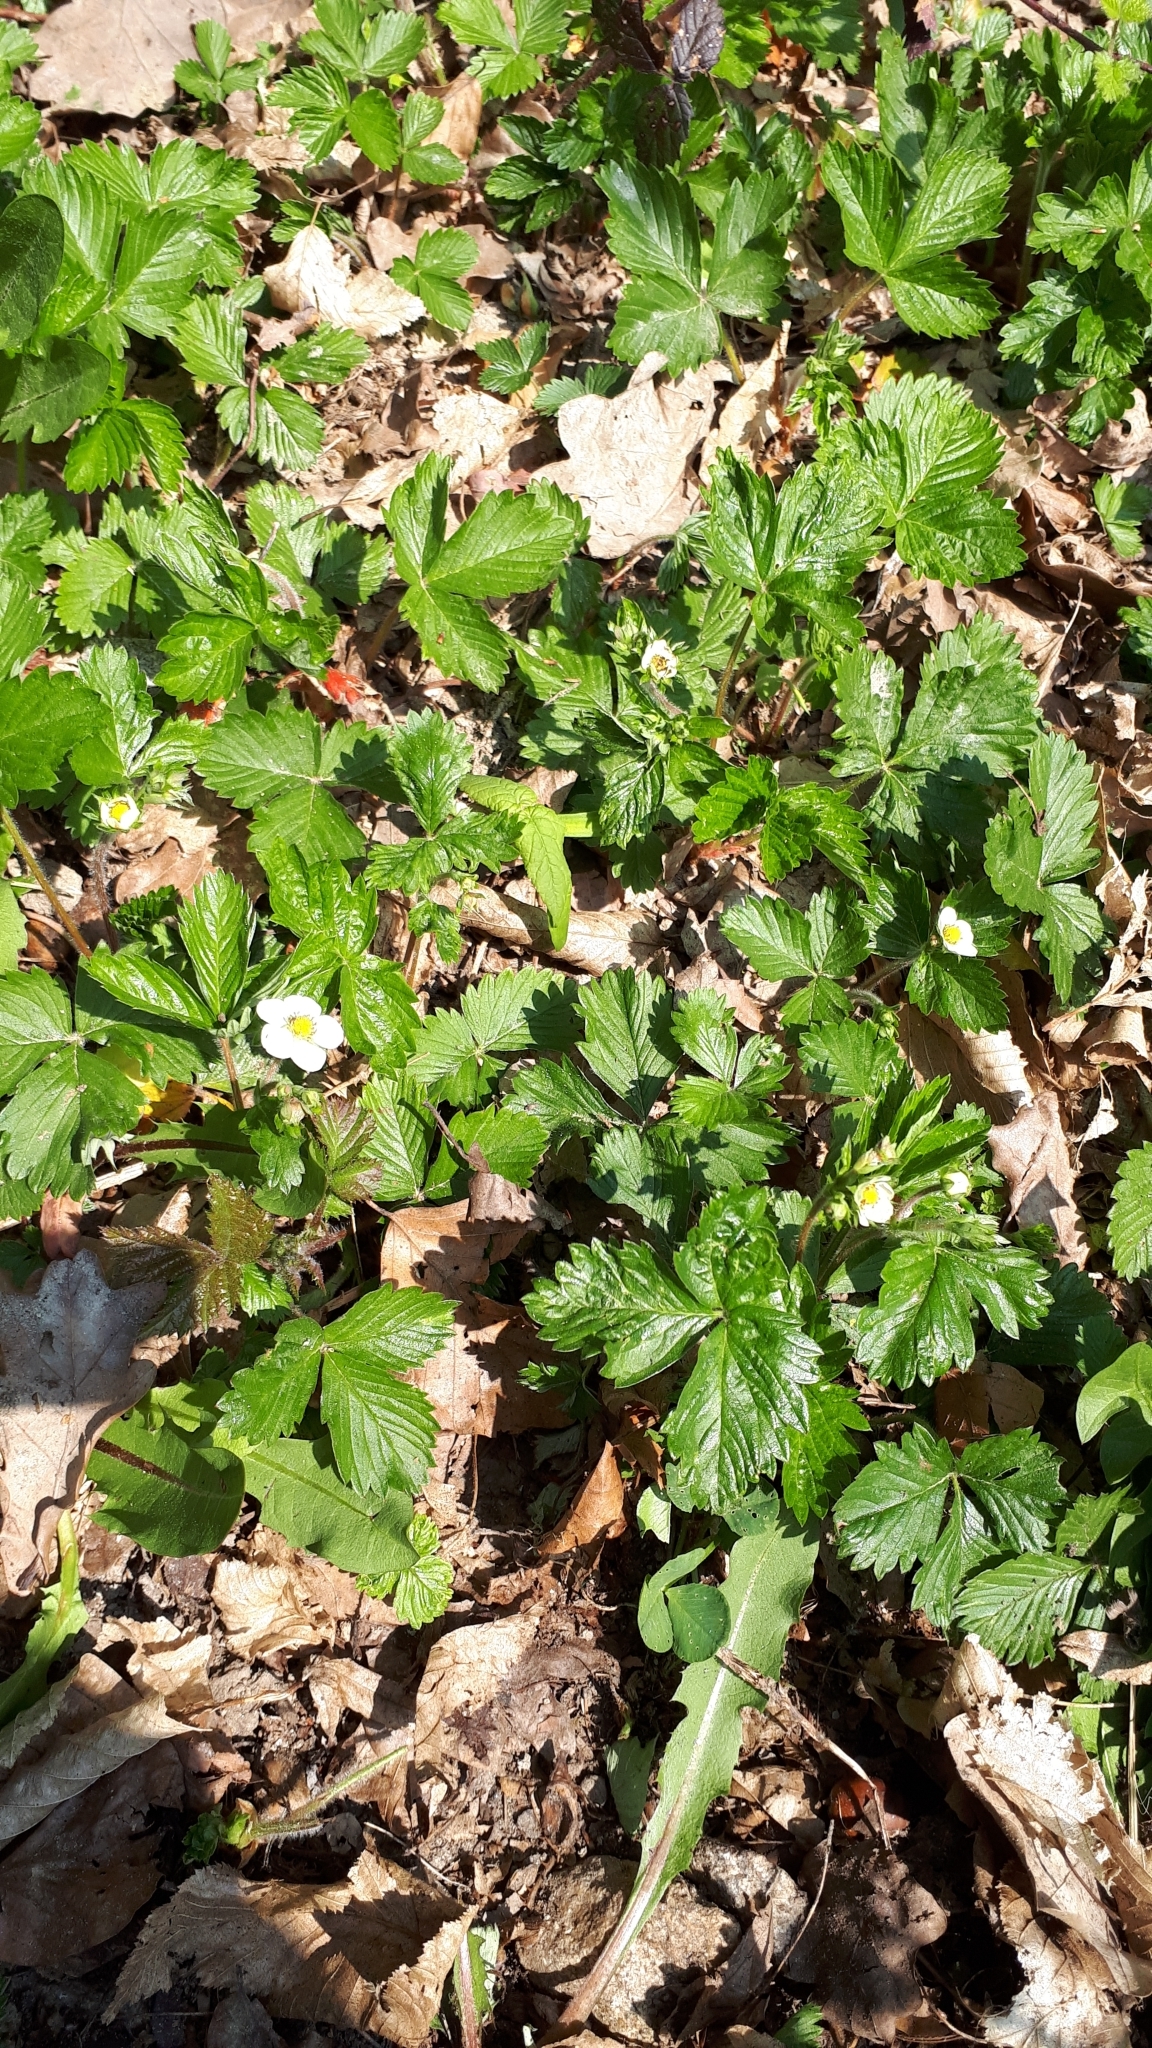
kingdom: Plantae
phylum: Tracheophyta
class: Magnoliopsida
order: Rosales
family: Rosaceae
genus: Fragaria
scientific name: Fragaria vesca
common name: Wild strawberry
